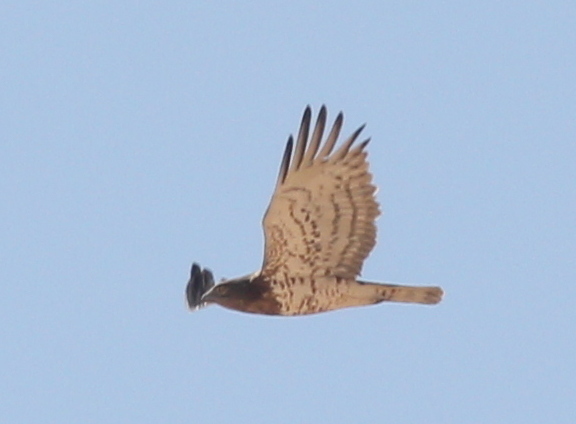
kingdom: Animalia
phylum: Chordata
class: Aves
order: Accipitriformes
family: Accipitridae
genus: Circaetus
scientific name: Circaetus gallicus
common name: Short-toed snake eagle
